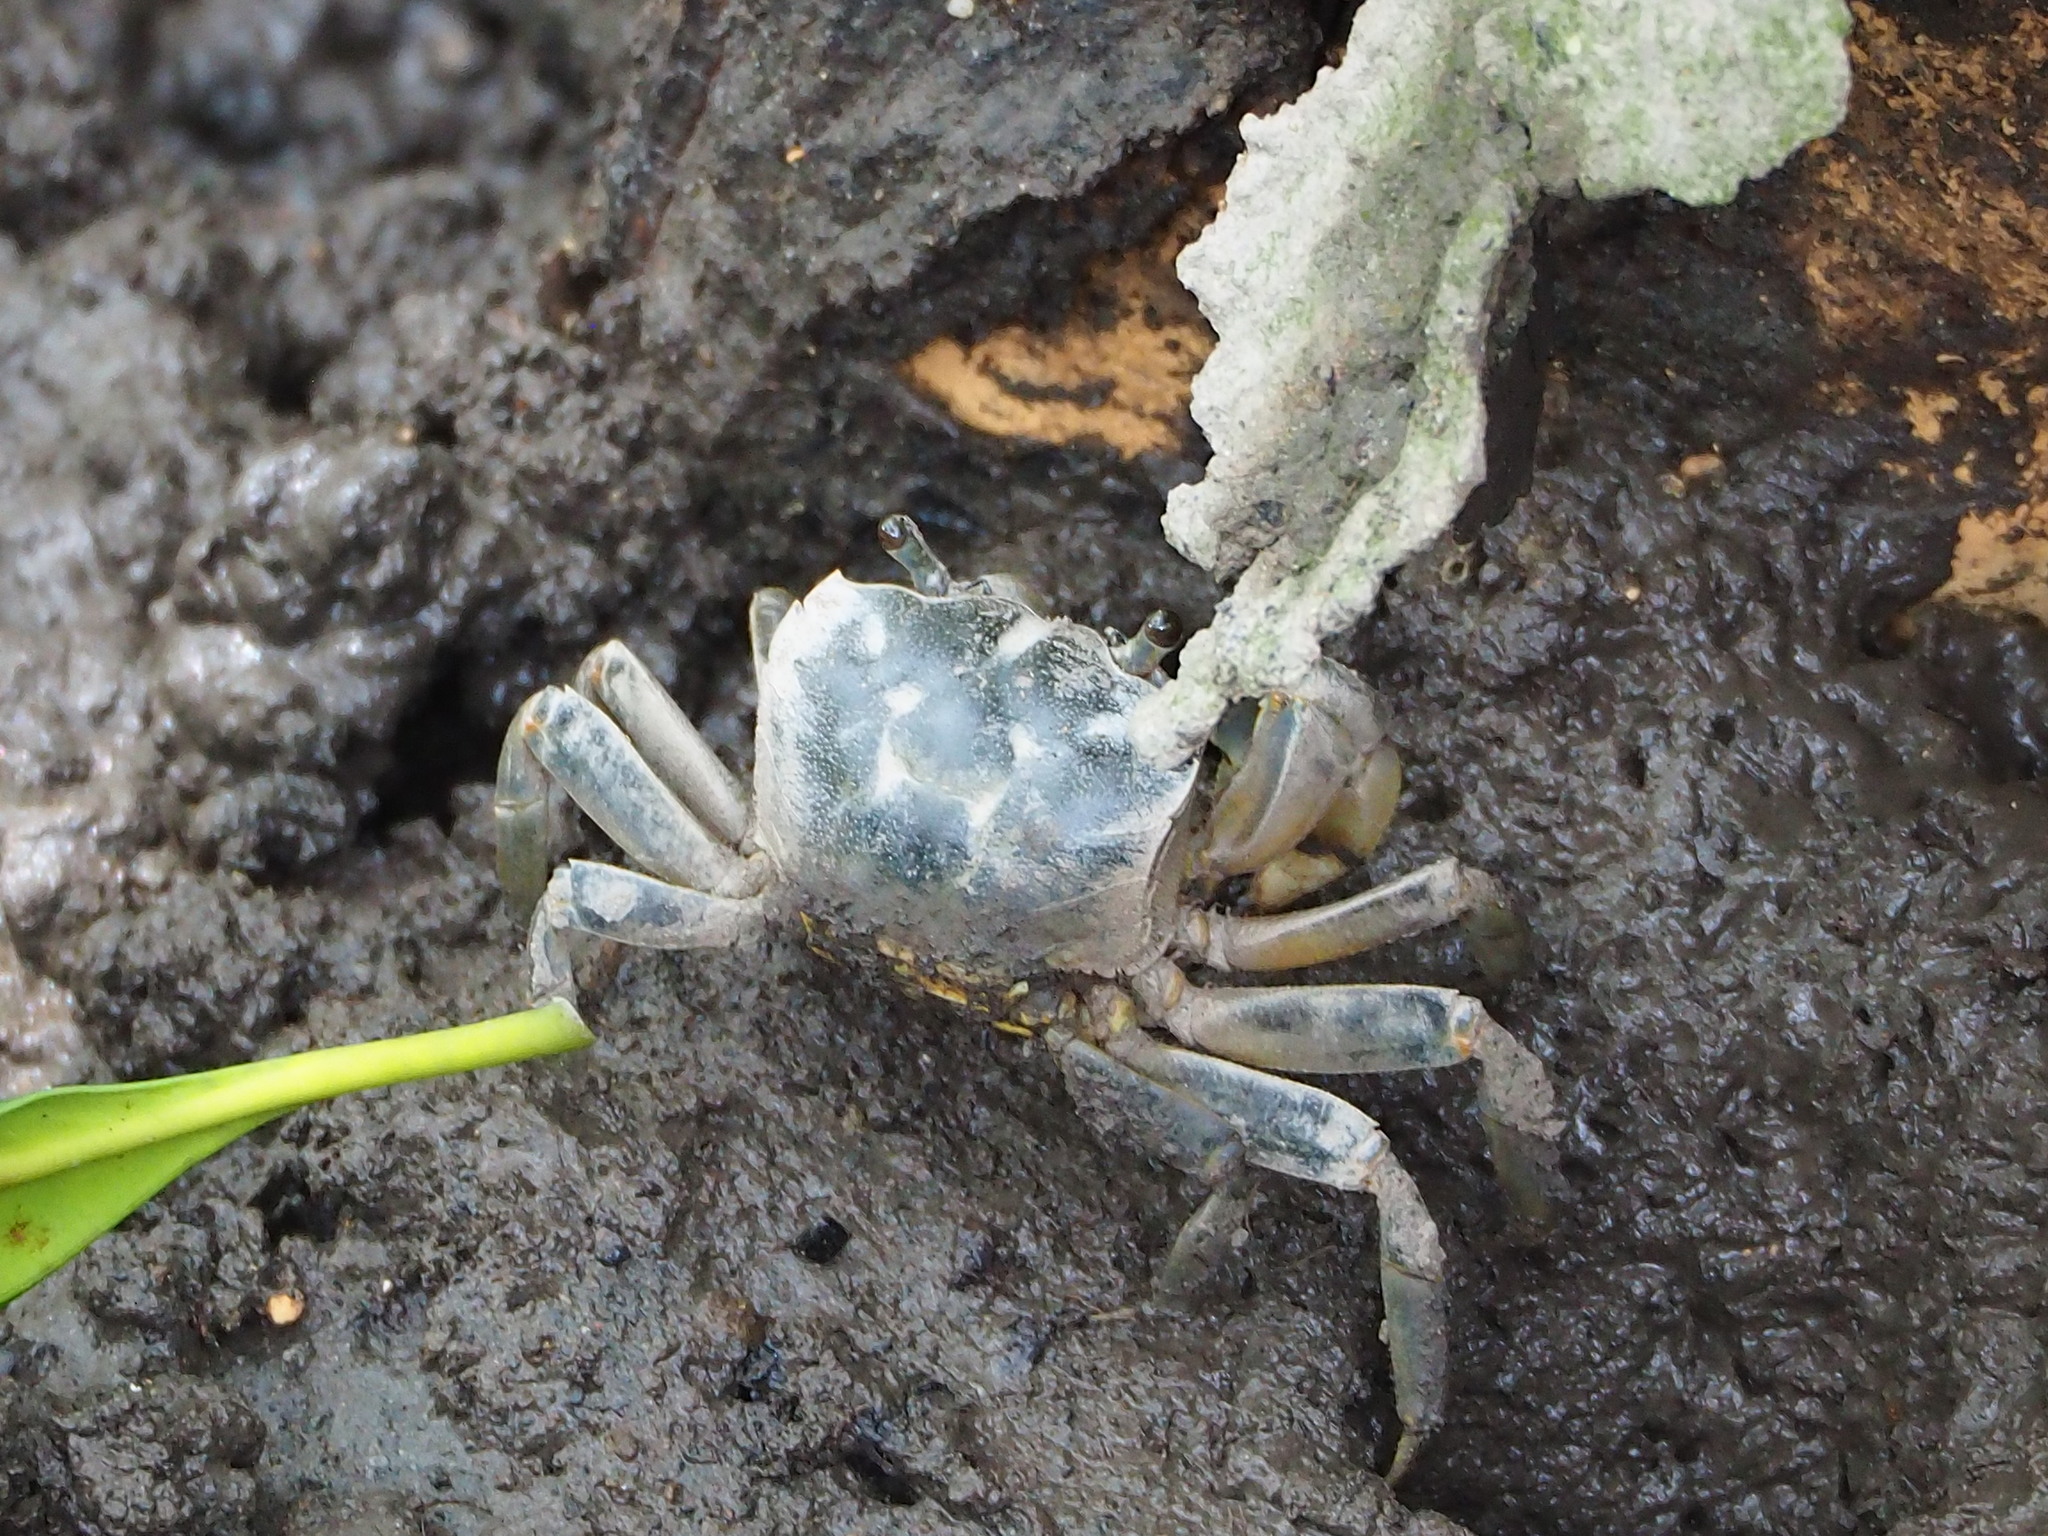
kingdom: Animalia
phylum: Arthropoda
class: Malacostraca
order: Decapoda
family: Varunidae
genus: Helice
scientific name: Helice formosensis
